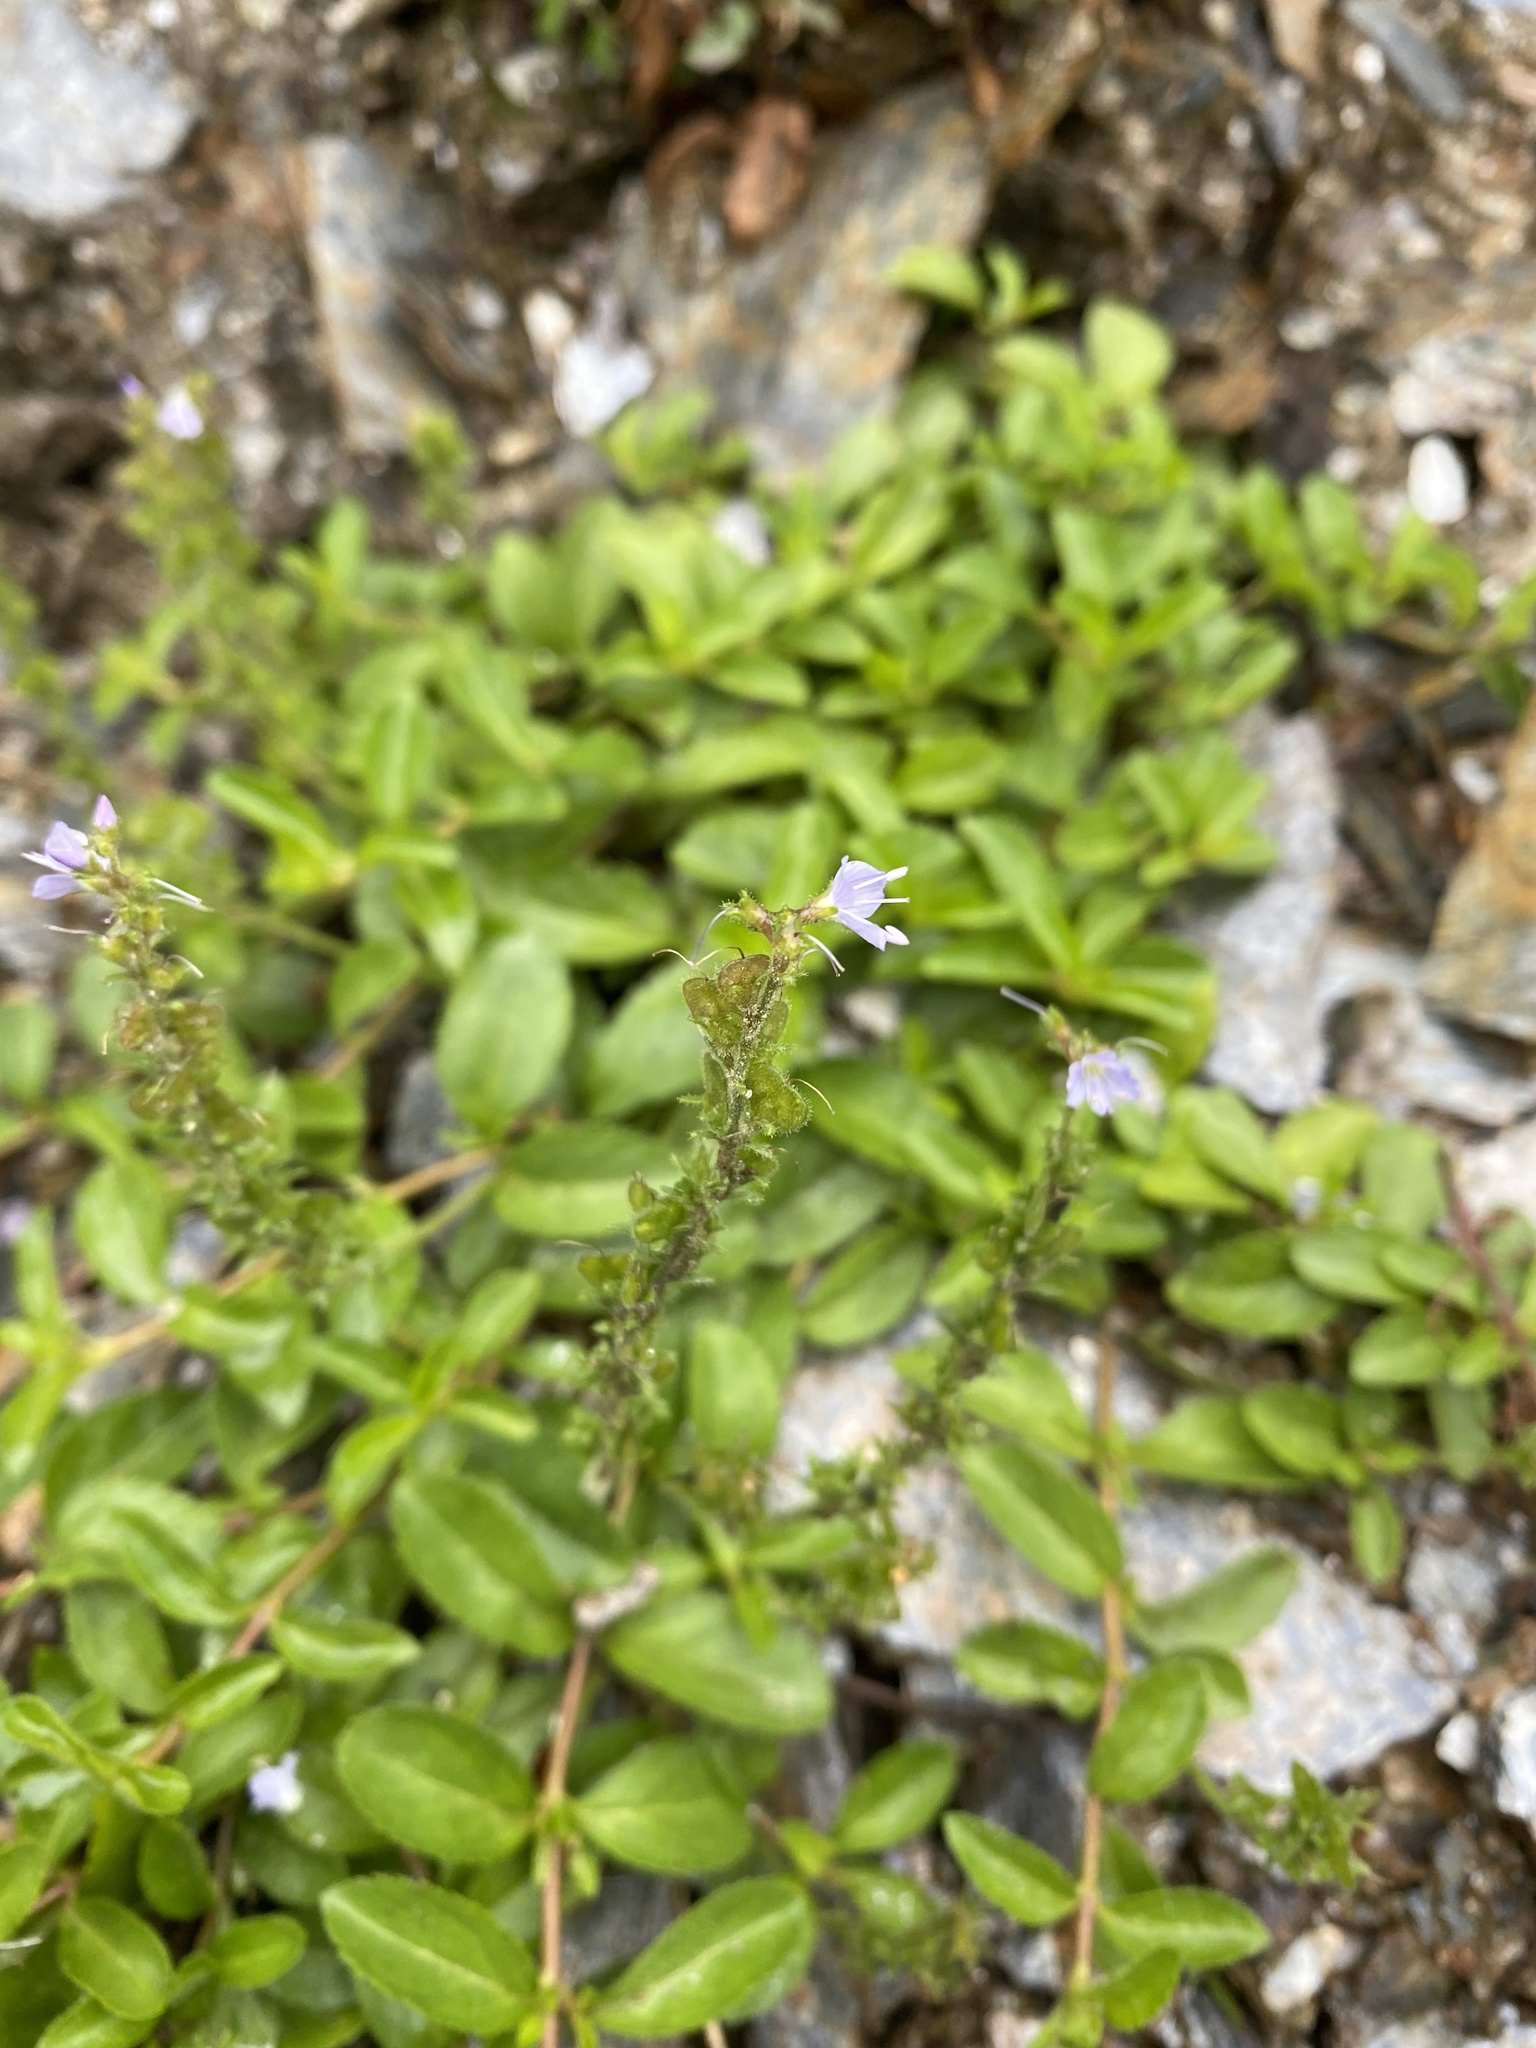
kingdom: Plantae
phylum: Tracheophyta
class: Magnoliopsida
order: Lamiales
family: Plantaginaceae
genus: Veronica
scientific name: Veronica officinalis
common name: Common speedwell
